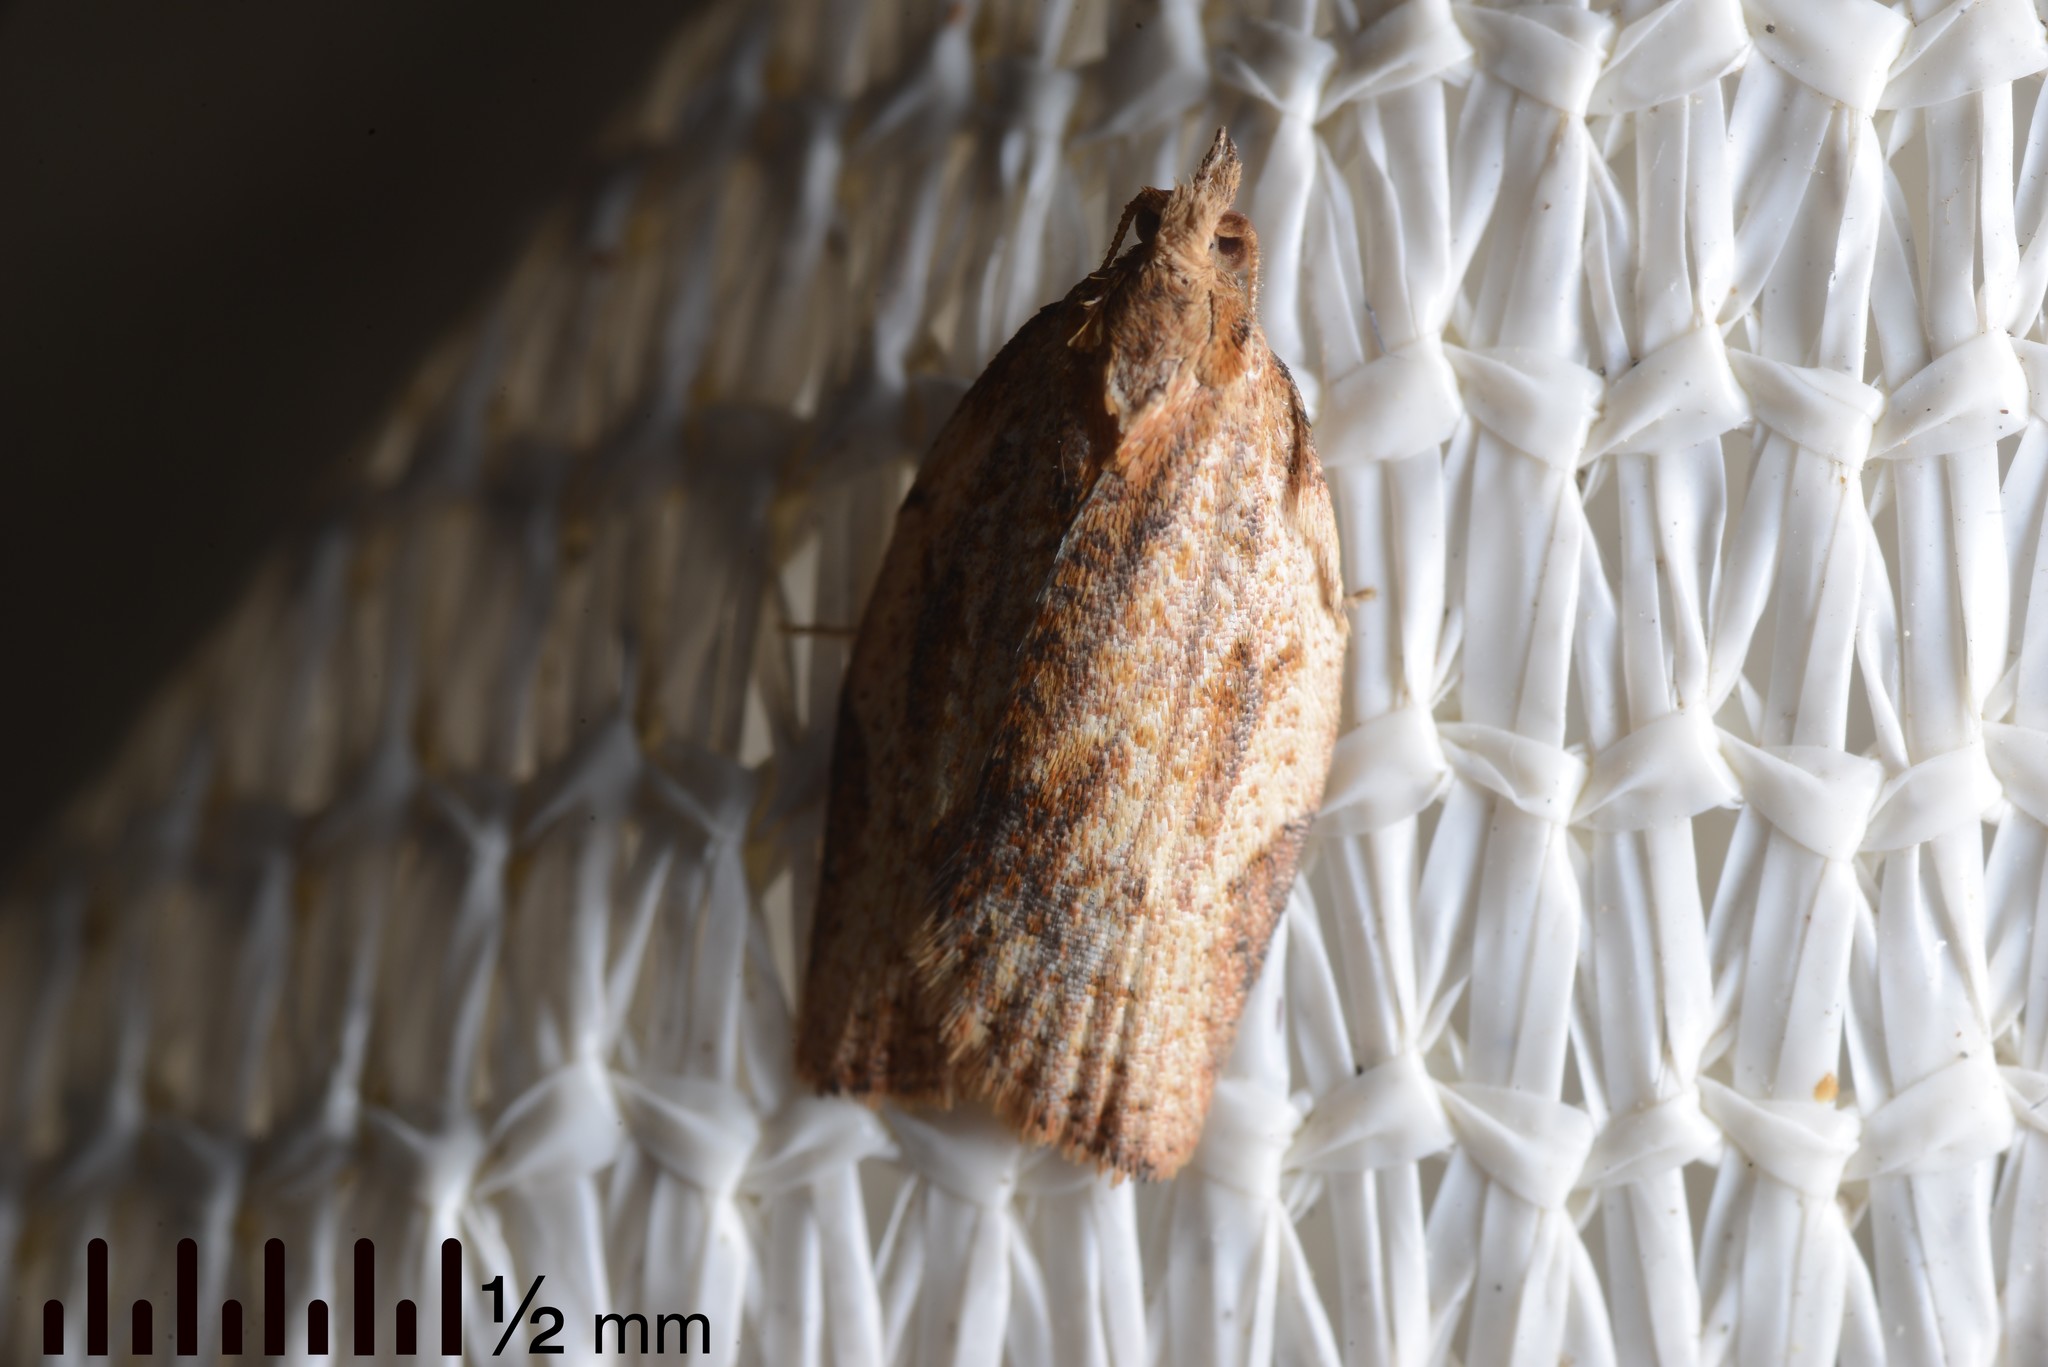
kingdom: Animalia
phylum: Arthropoda
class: Insecta
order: Lepidoptera
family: Tortricidae
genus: Epiphyas
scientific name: Epiphyas postvittana
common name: Light brown apple moth
